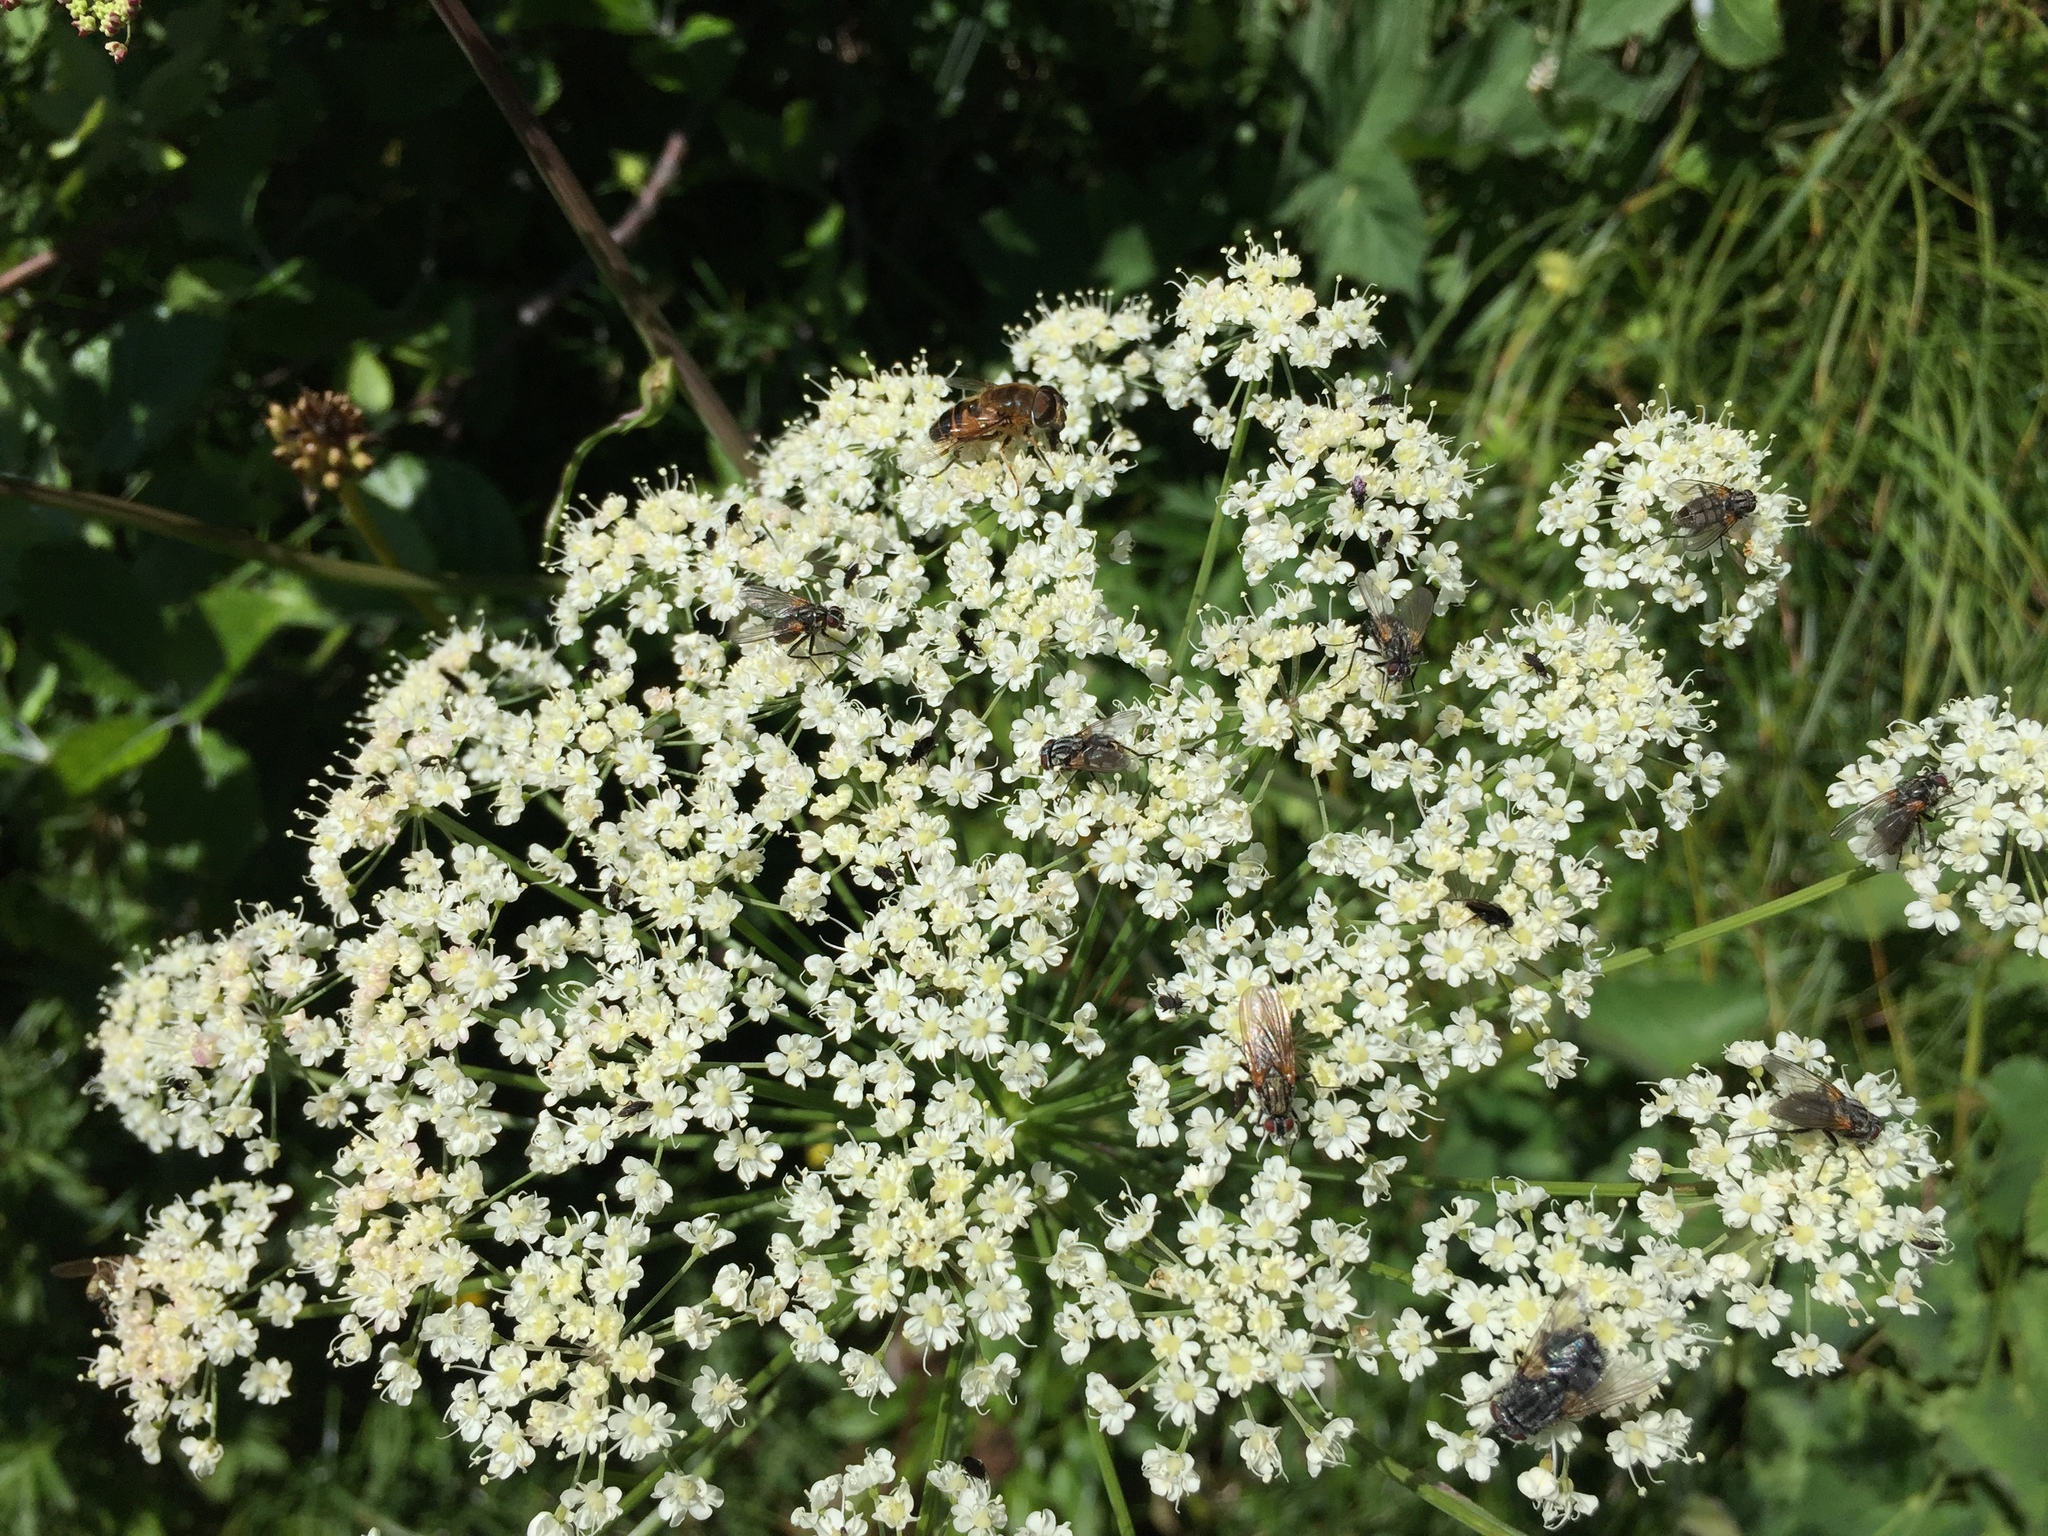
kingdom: Animalia
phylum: Arthropoda
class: Insecta
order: Diptera
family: Syrphidae
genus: Eristalis
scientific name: Eristalis pertinax
